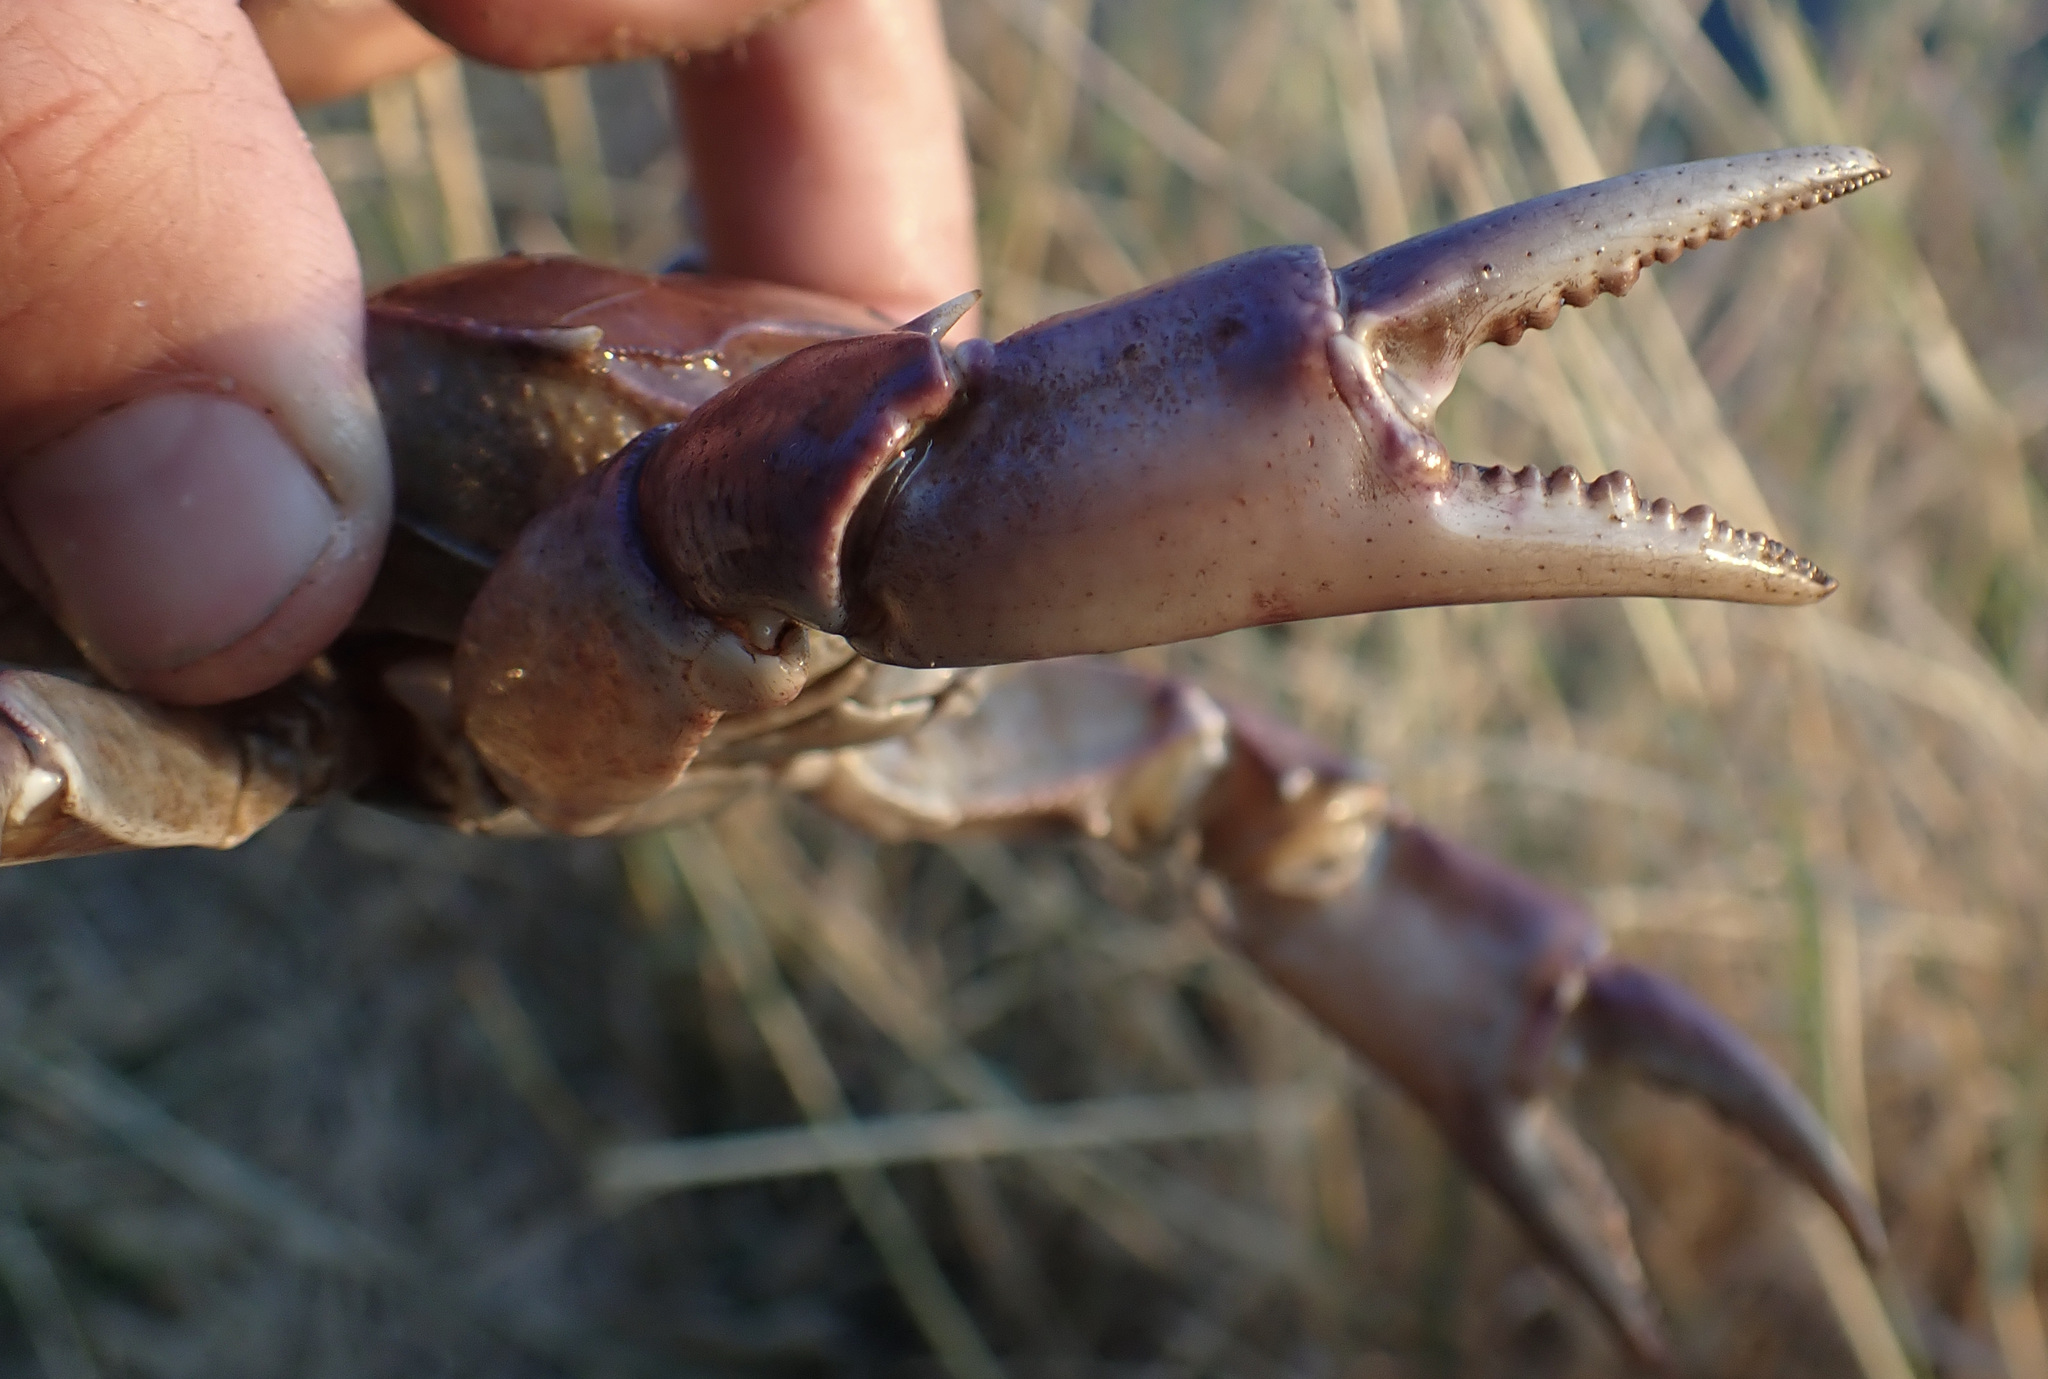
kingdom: Animalia
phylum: Arthropoda
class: Malacostraca
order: Decapoda
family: Potamonautidae
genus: Potamonautes
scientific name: Potamonautes bayonianus
